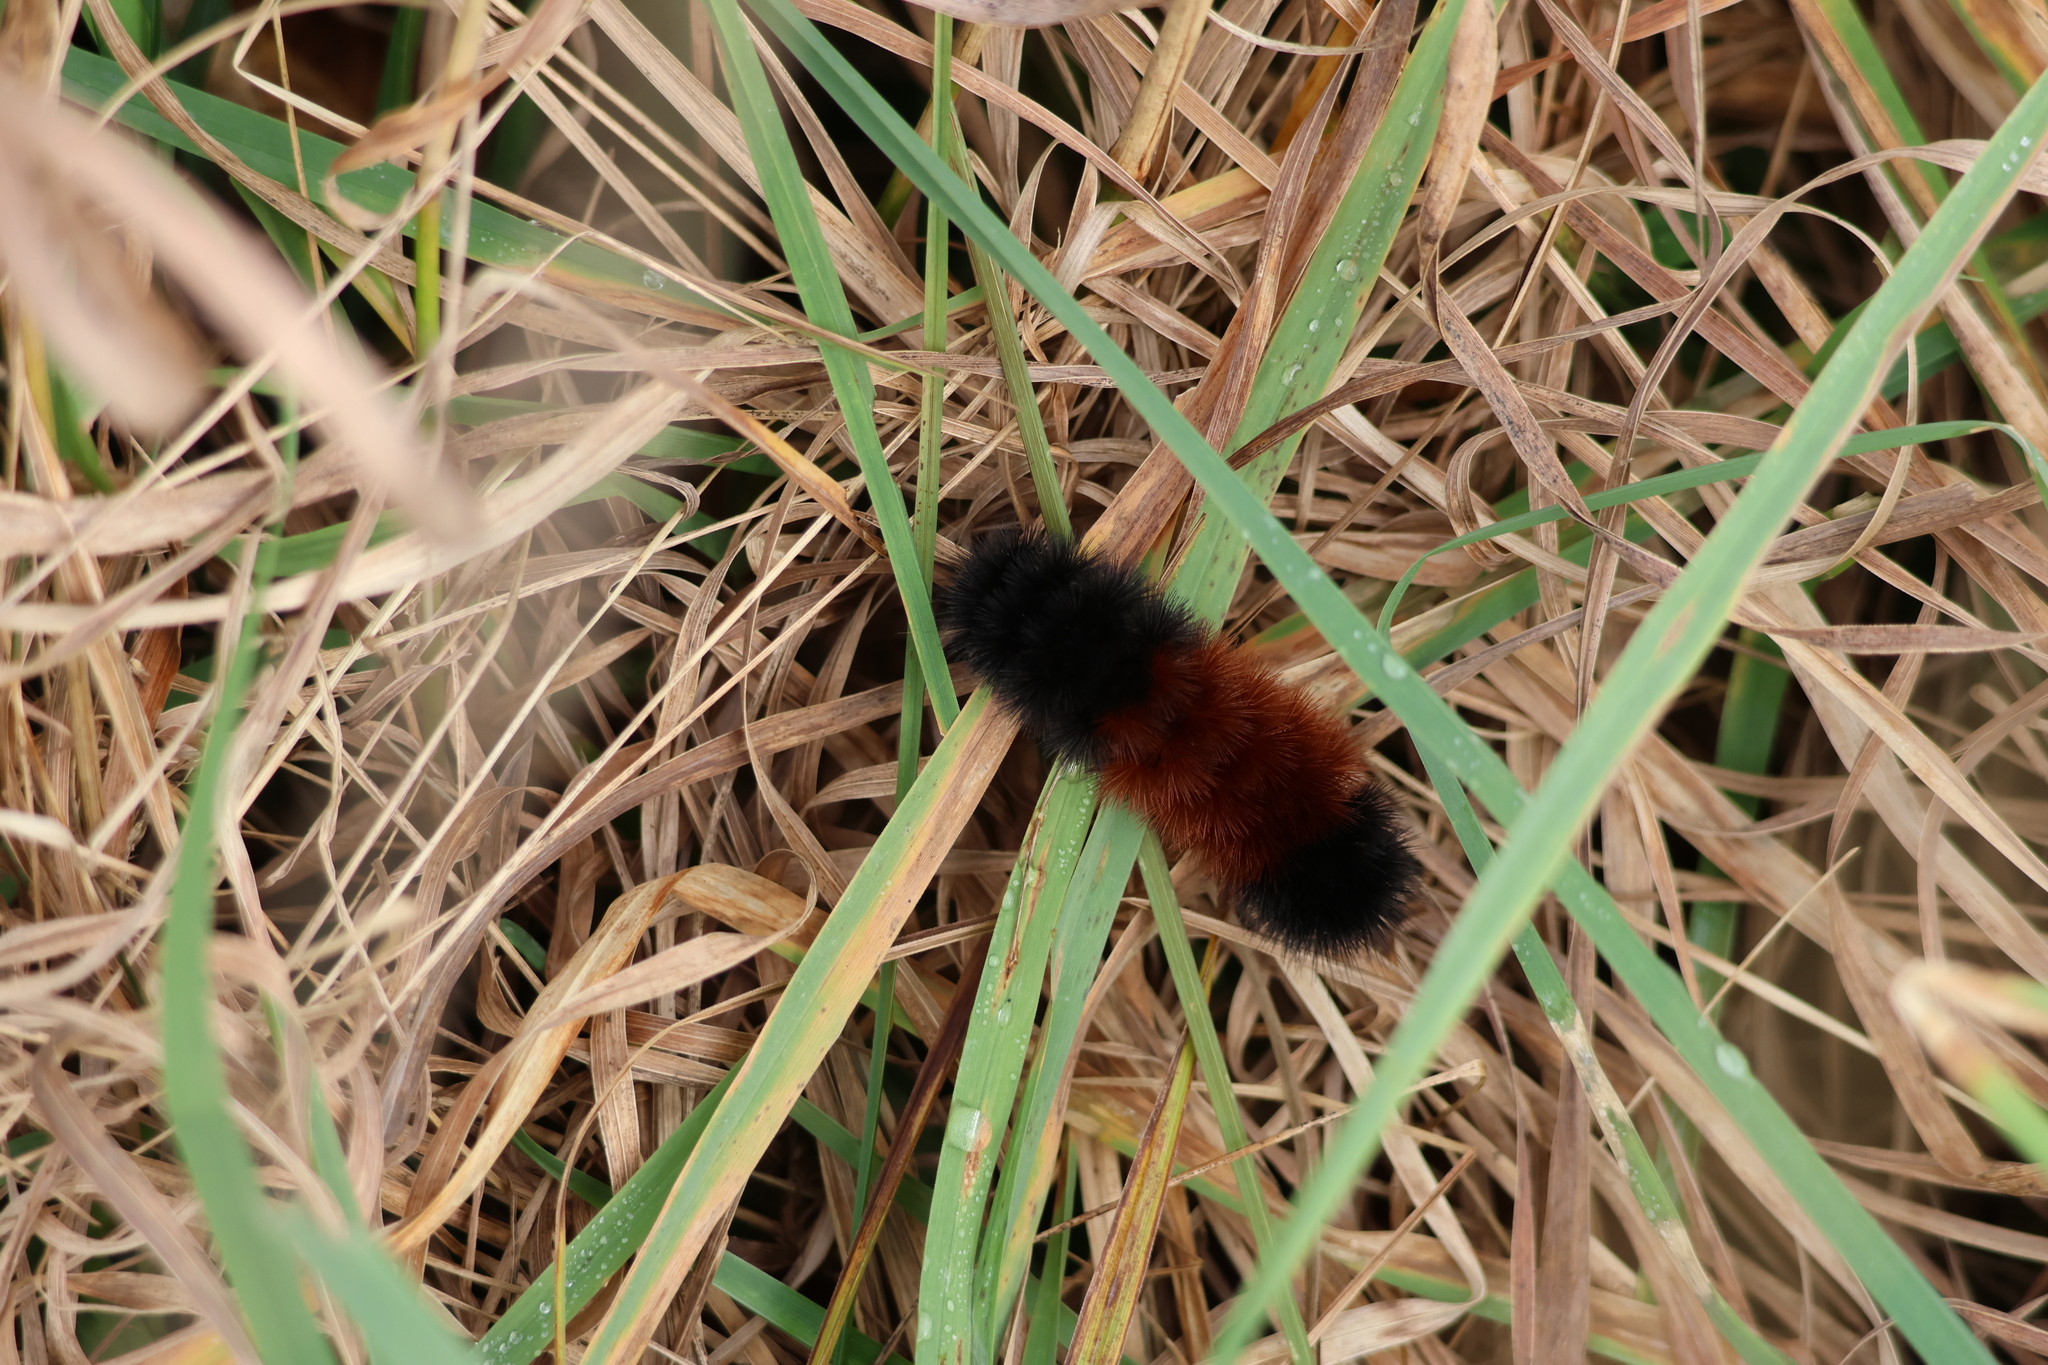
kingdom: Animalia
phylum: Arthropoda
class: Insecta
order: Lepidoptera
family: Erebidae
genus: Pyrrharctia
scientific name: Pyrrharctia isabella
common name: Isabella tiger moth
